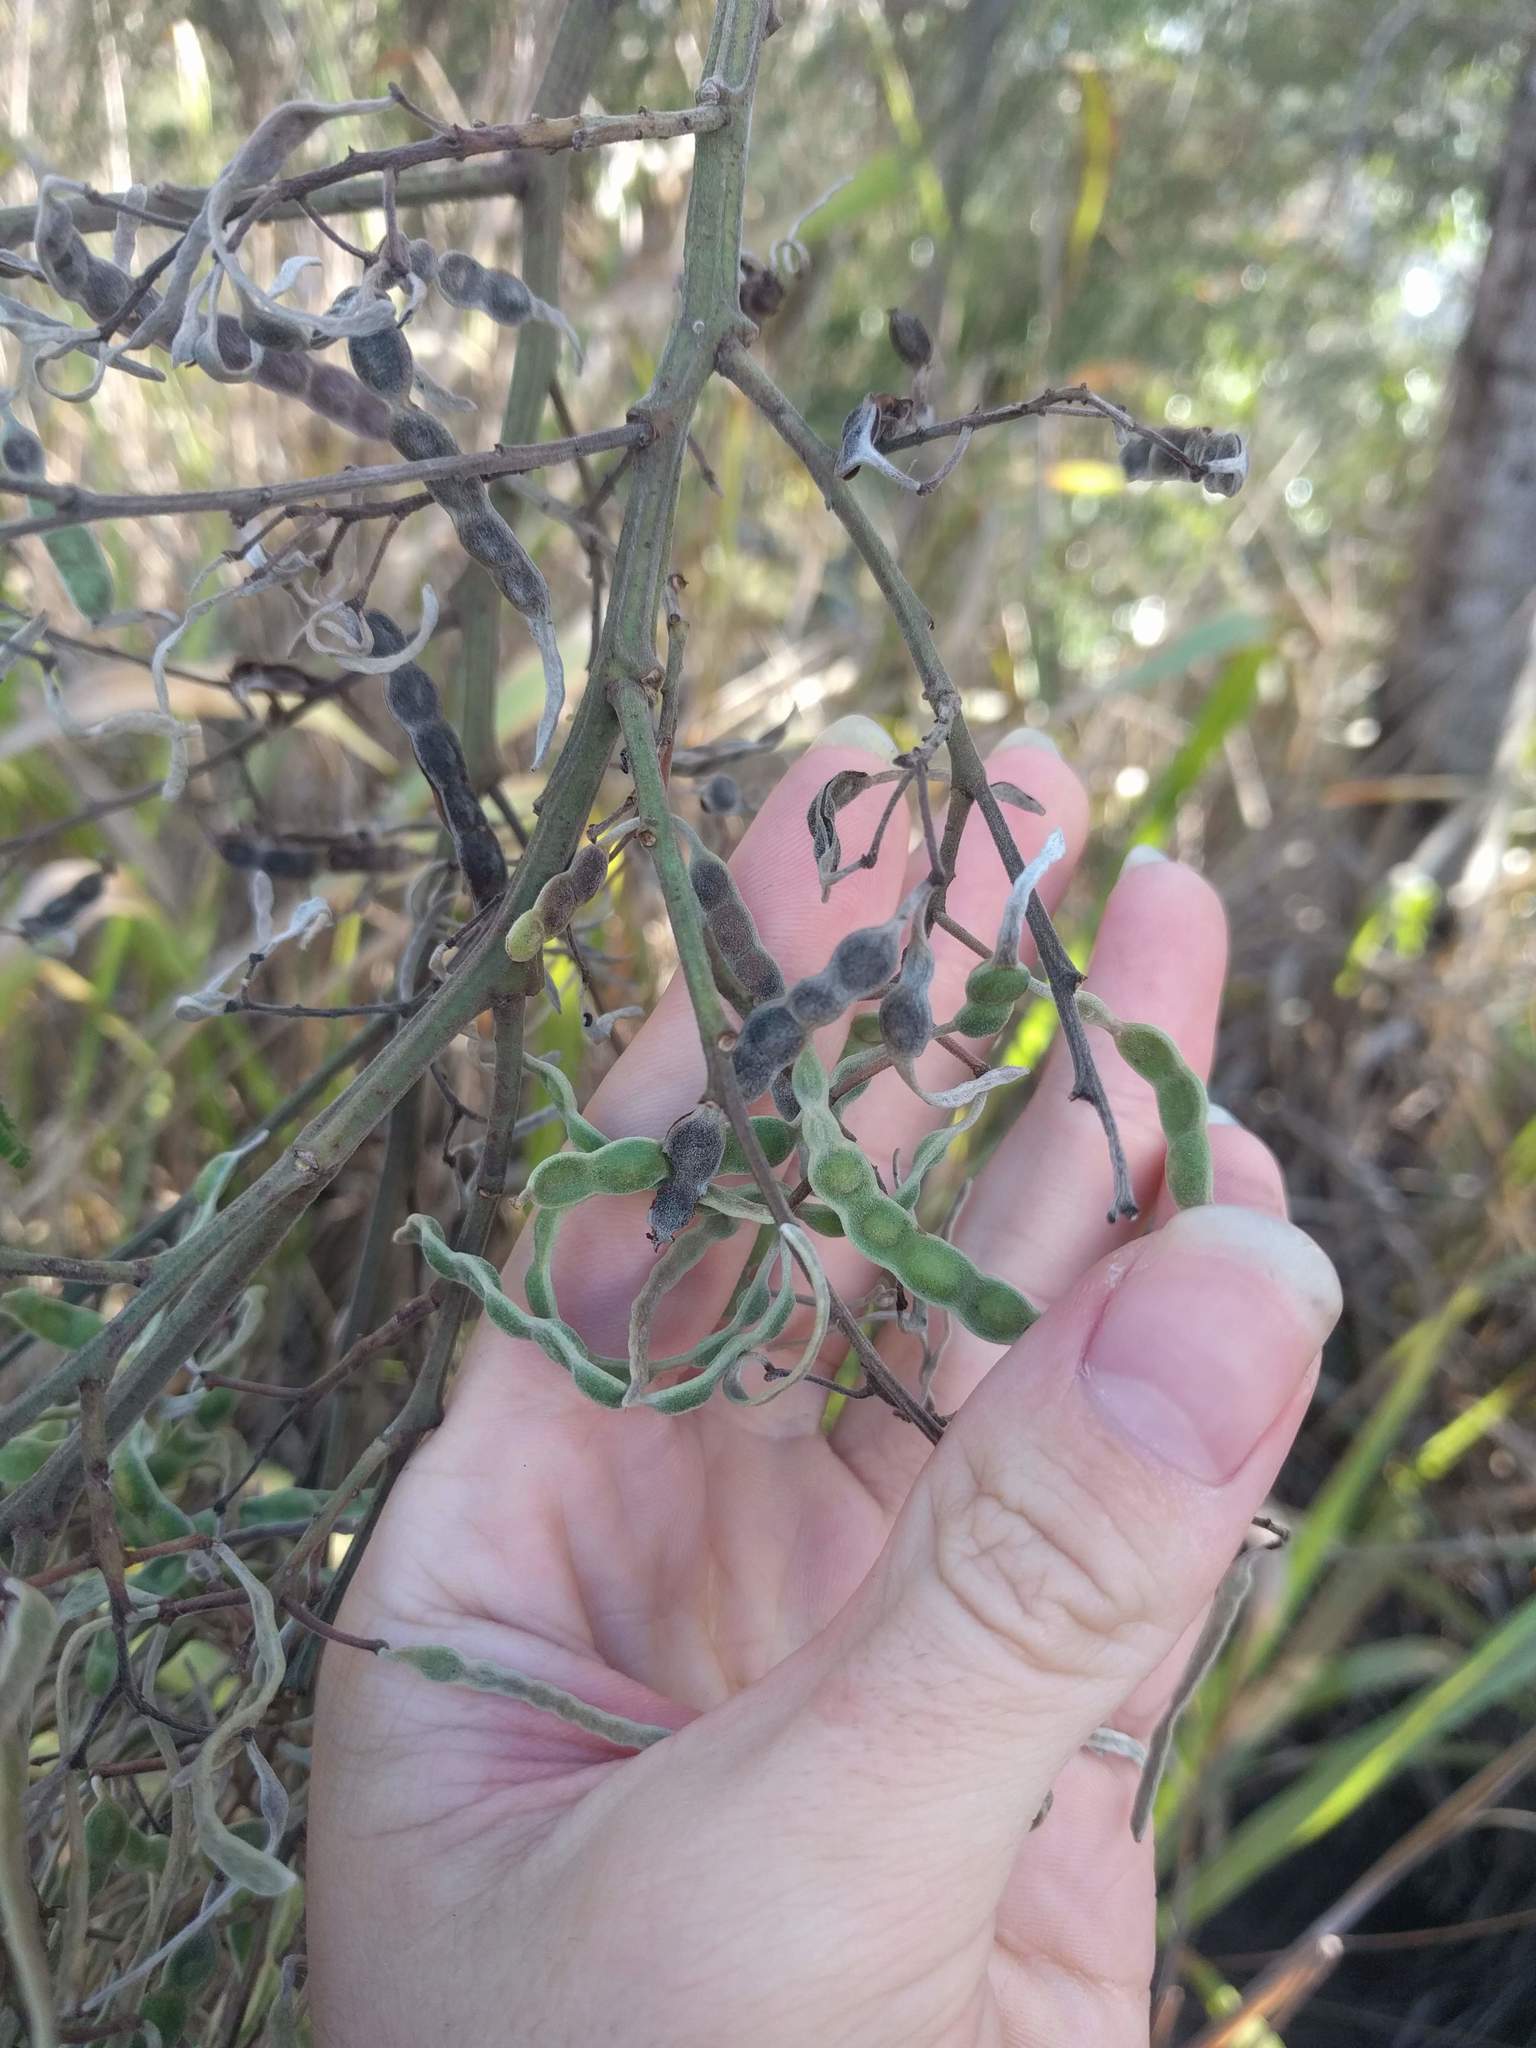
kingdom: Plantae
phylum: Tracheophyta
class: Magnoliopsida
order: Fabales
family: Fabaceae
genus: Acacia
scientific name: Acacia mearnsii
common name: Black wattle
